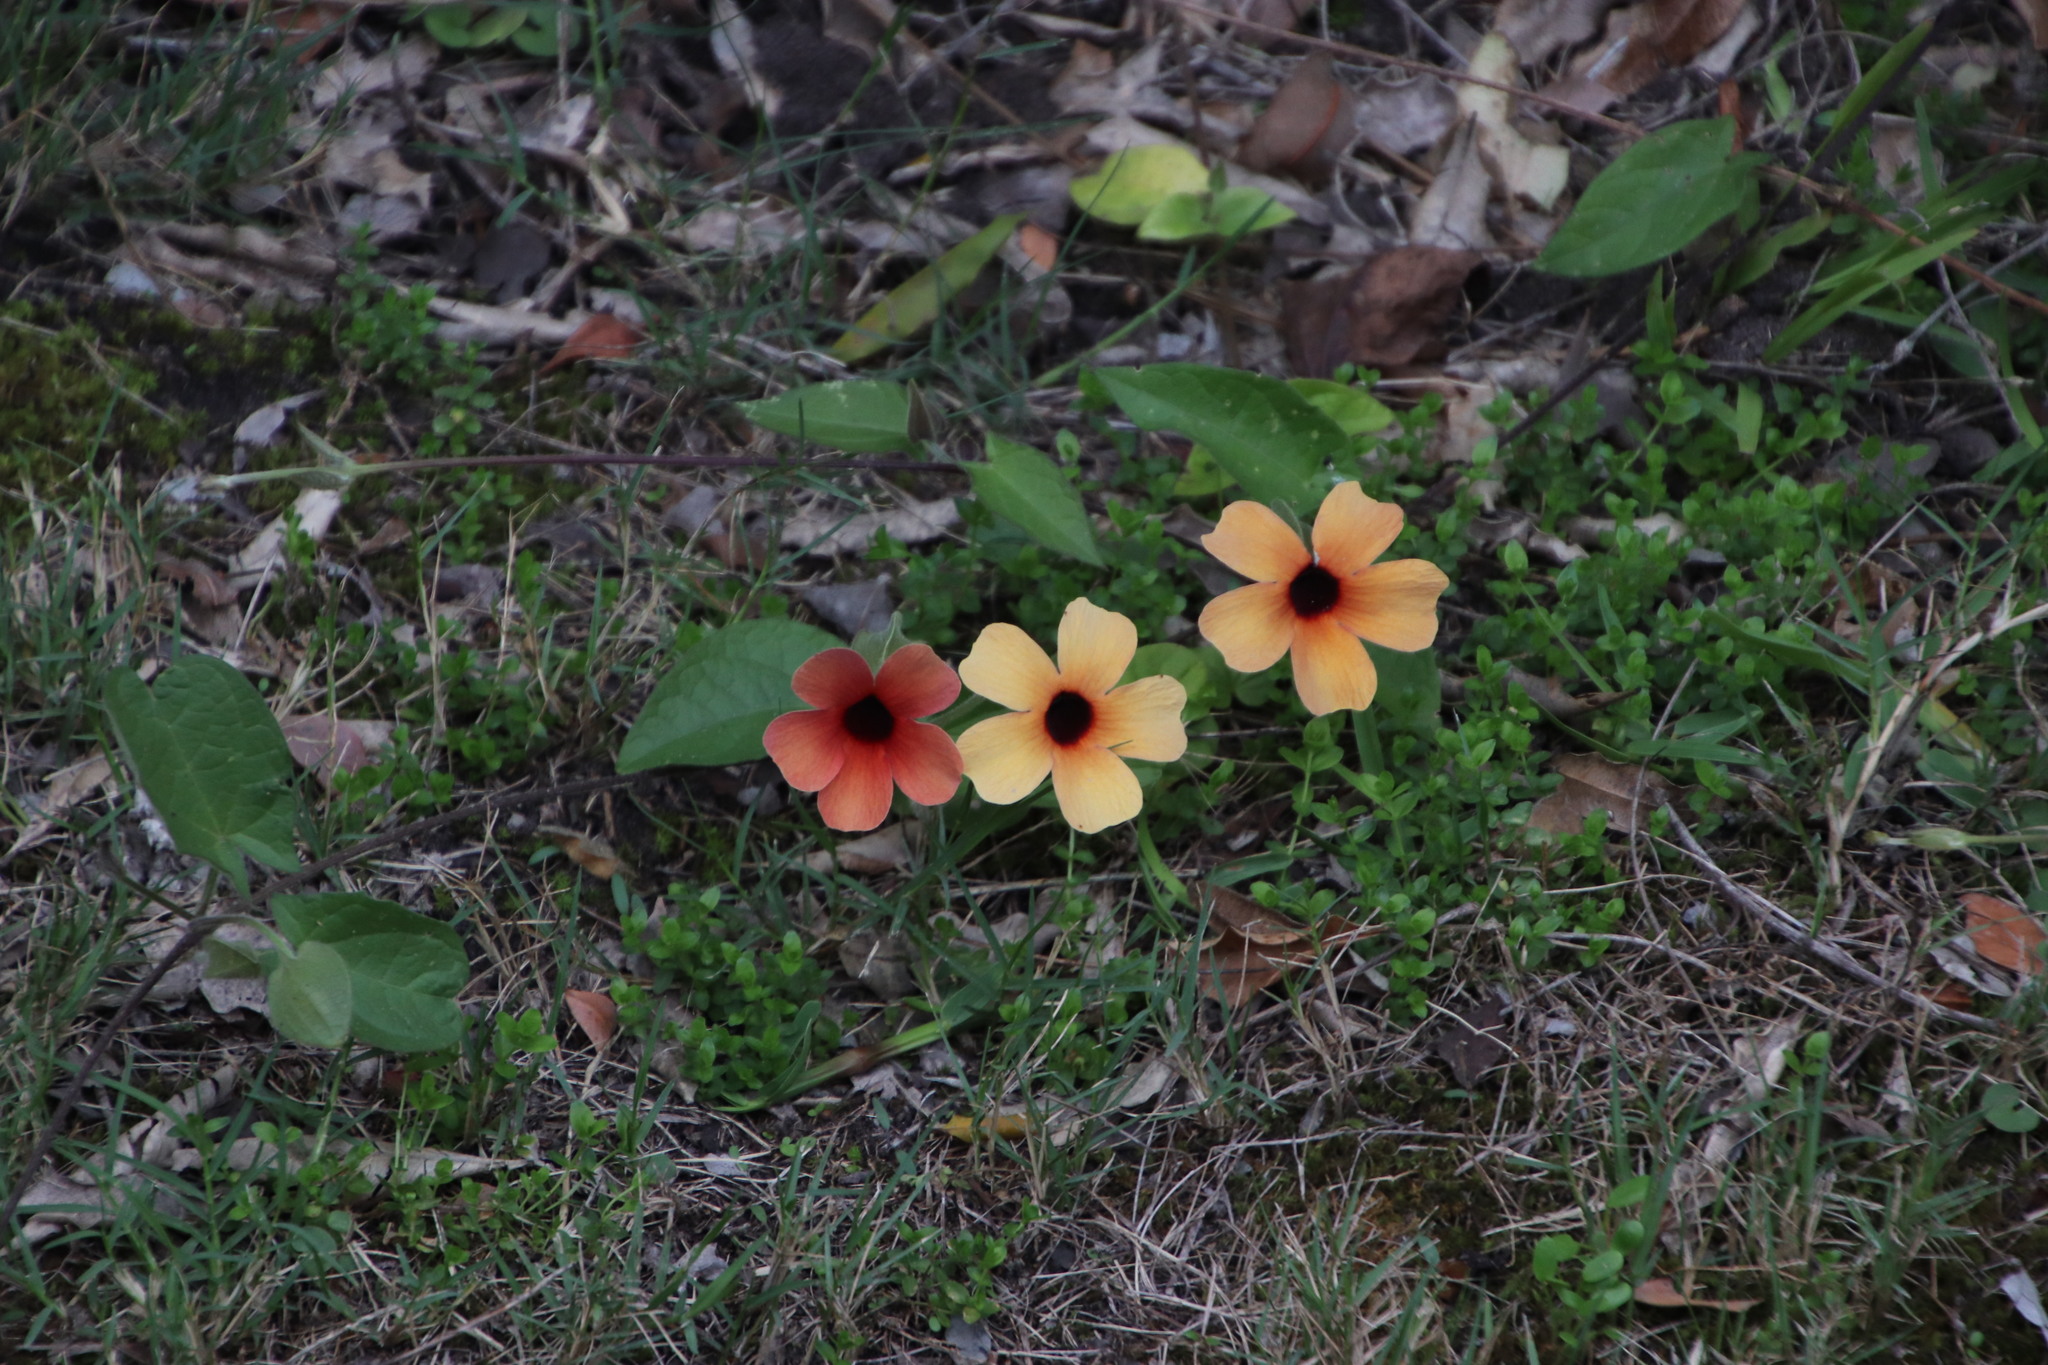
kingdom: Plantae
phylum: Tracheophyta
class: Magnoliopsida
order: Lamiales
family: Acanthaceae
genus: Thunbergia
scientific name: Thunbergia alata
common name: Blackeyed susan vine
